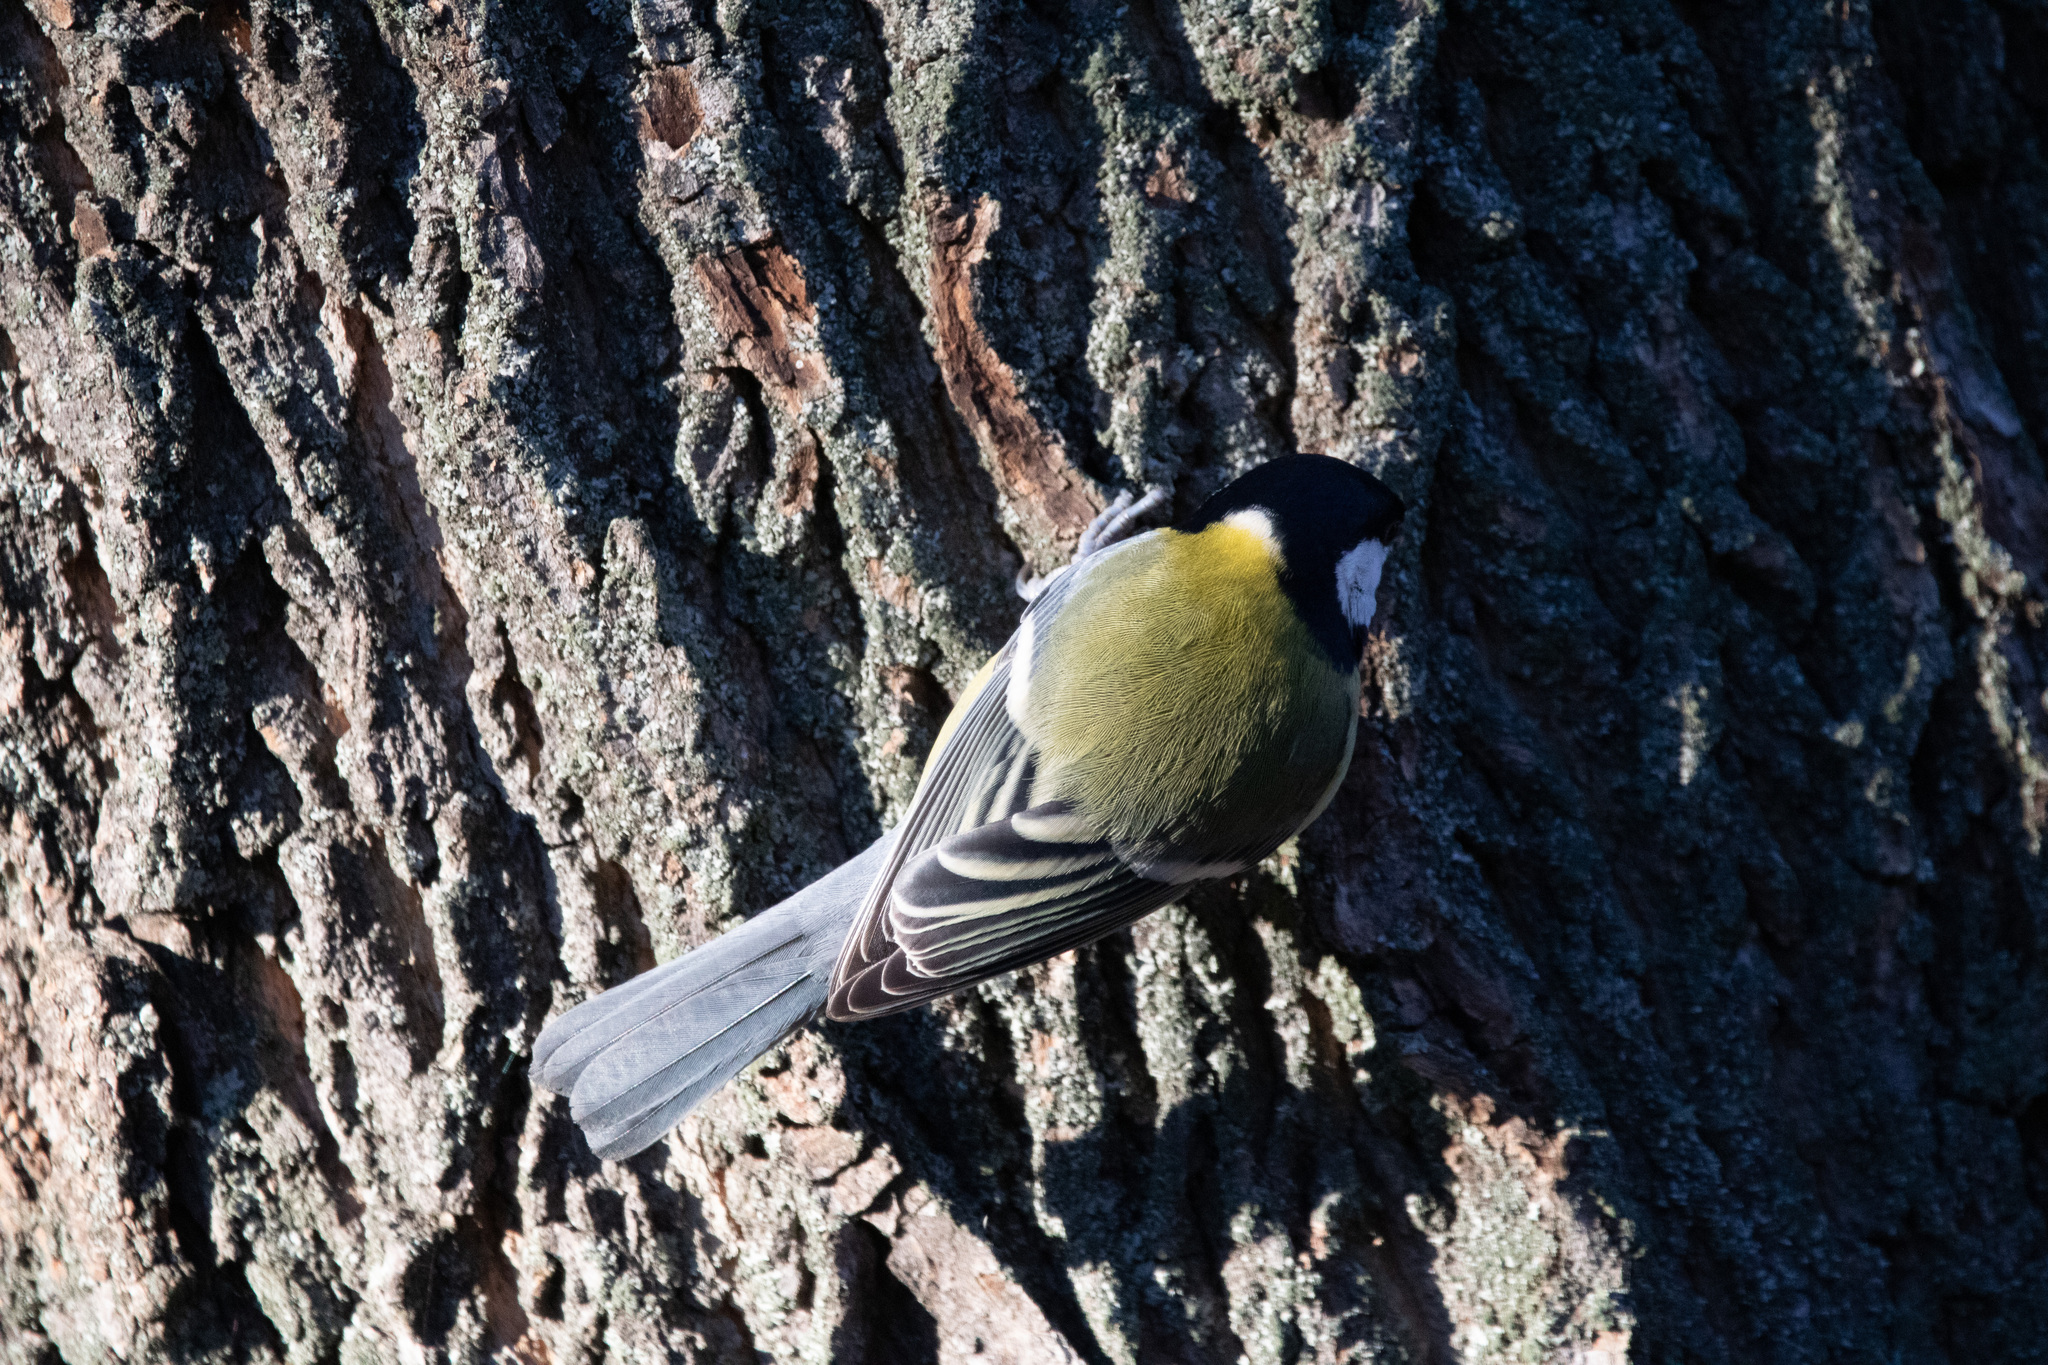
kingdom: Animalia
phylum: Chordata
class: Aves
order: Passeriformes
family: Paridae
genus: Parus
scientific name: Parus major
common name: Great tit
